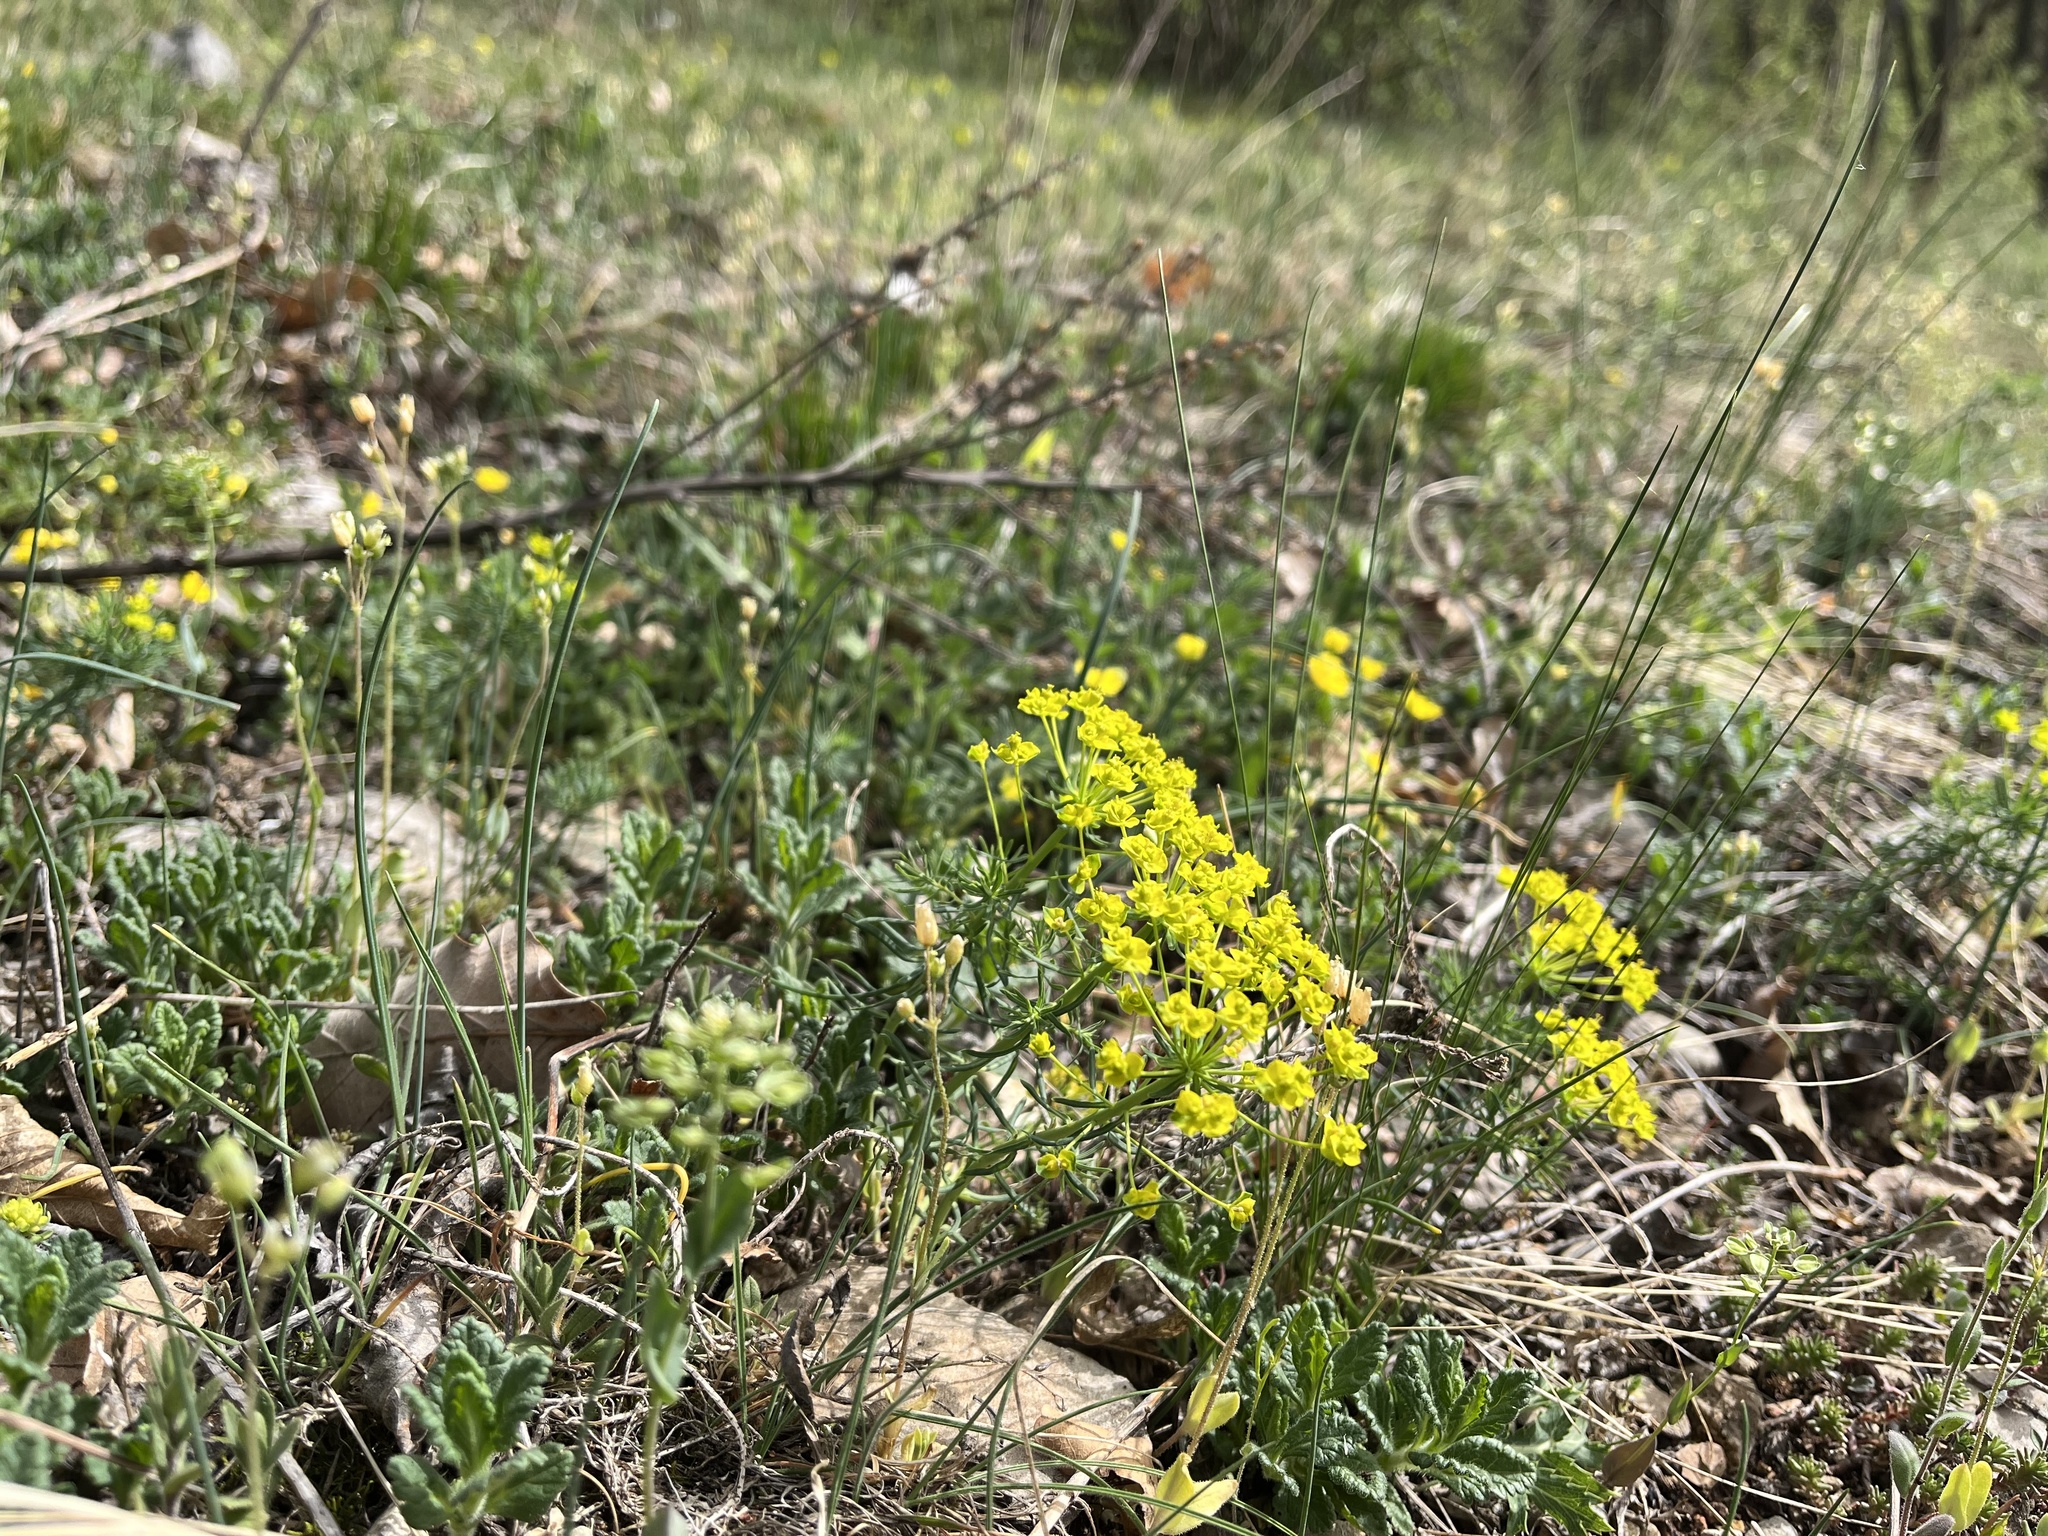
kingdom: Plantae
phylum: Tracheophyta
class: Magnoliopsida
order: Malpighiales
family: Euphorbiaceae
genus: Euphorbia
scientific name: Euphorbia cyparissias
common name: Cypress spurge
